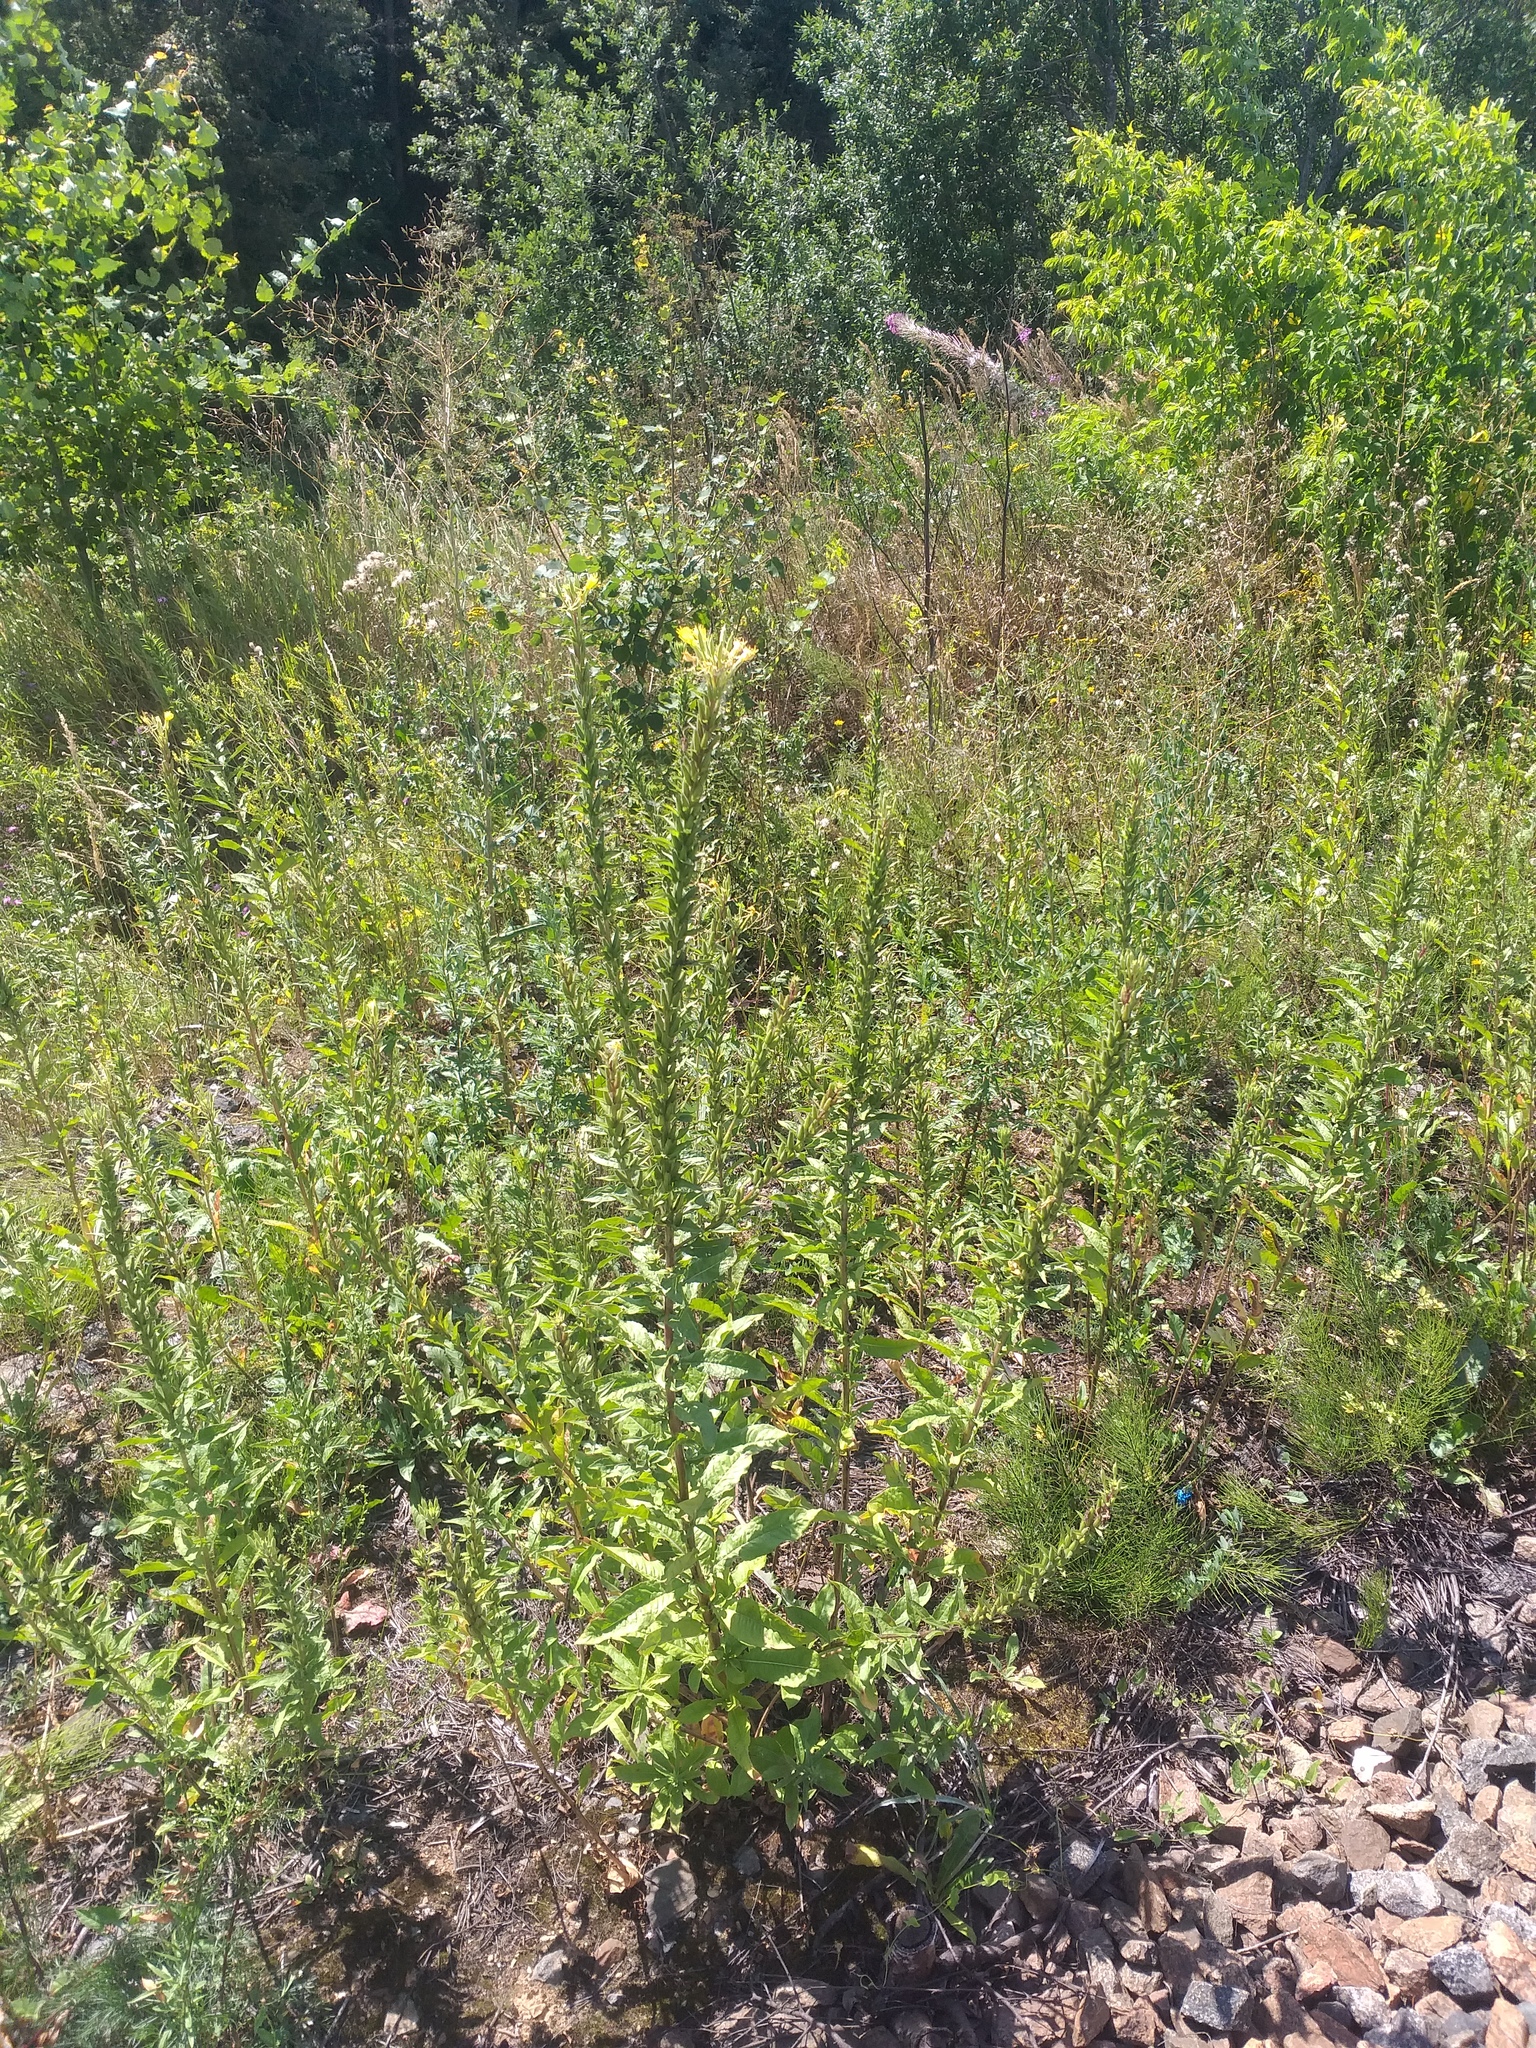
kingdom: Plantae
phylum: Tracheophyta
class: Magnoliopsida
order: Myrtales
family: Onagraceae
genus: Oenothera
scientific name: Oenothera rubricaulis
